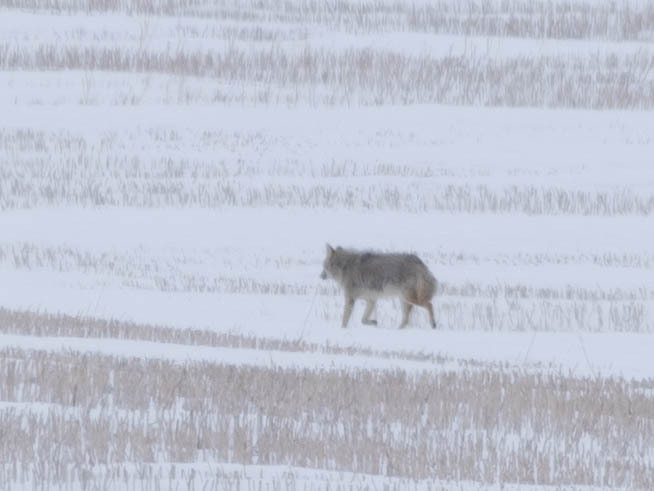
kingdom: Animalia
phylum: Chordata
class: Mammalia
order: Carnivora
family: Canidae
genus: Canis
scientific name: Canis latrans
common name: Coyote
